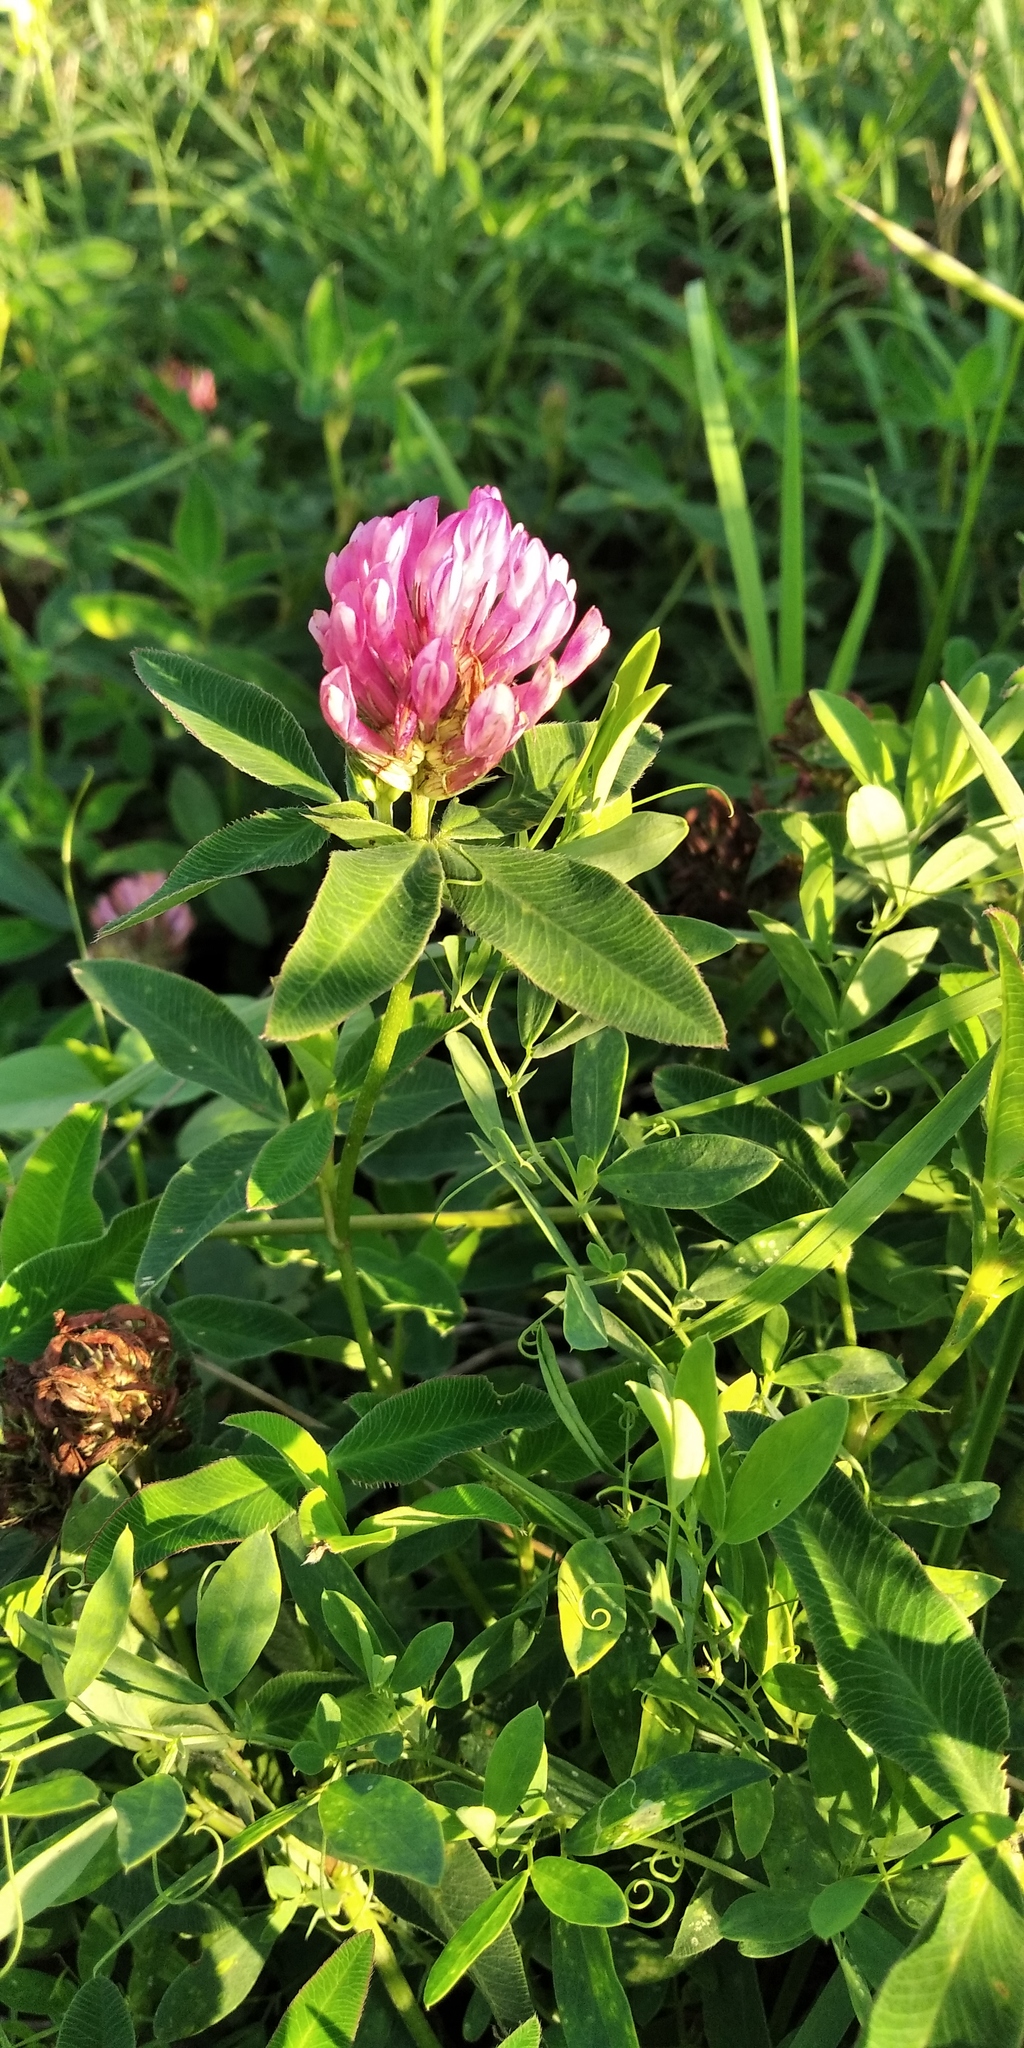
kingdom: Plantae
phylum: Tracheophyta
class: Magnoliopsida
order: Fabales
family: Fabaceae
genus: Trifolium
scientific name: Trifolium pratense
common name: Red clover
